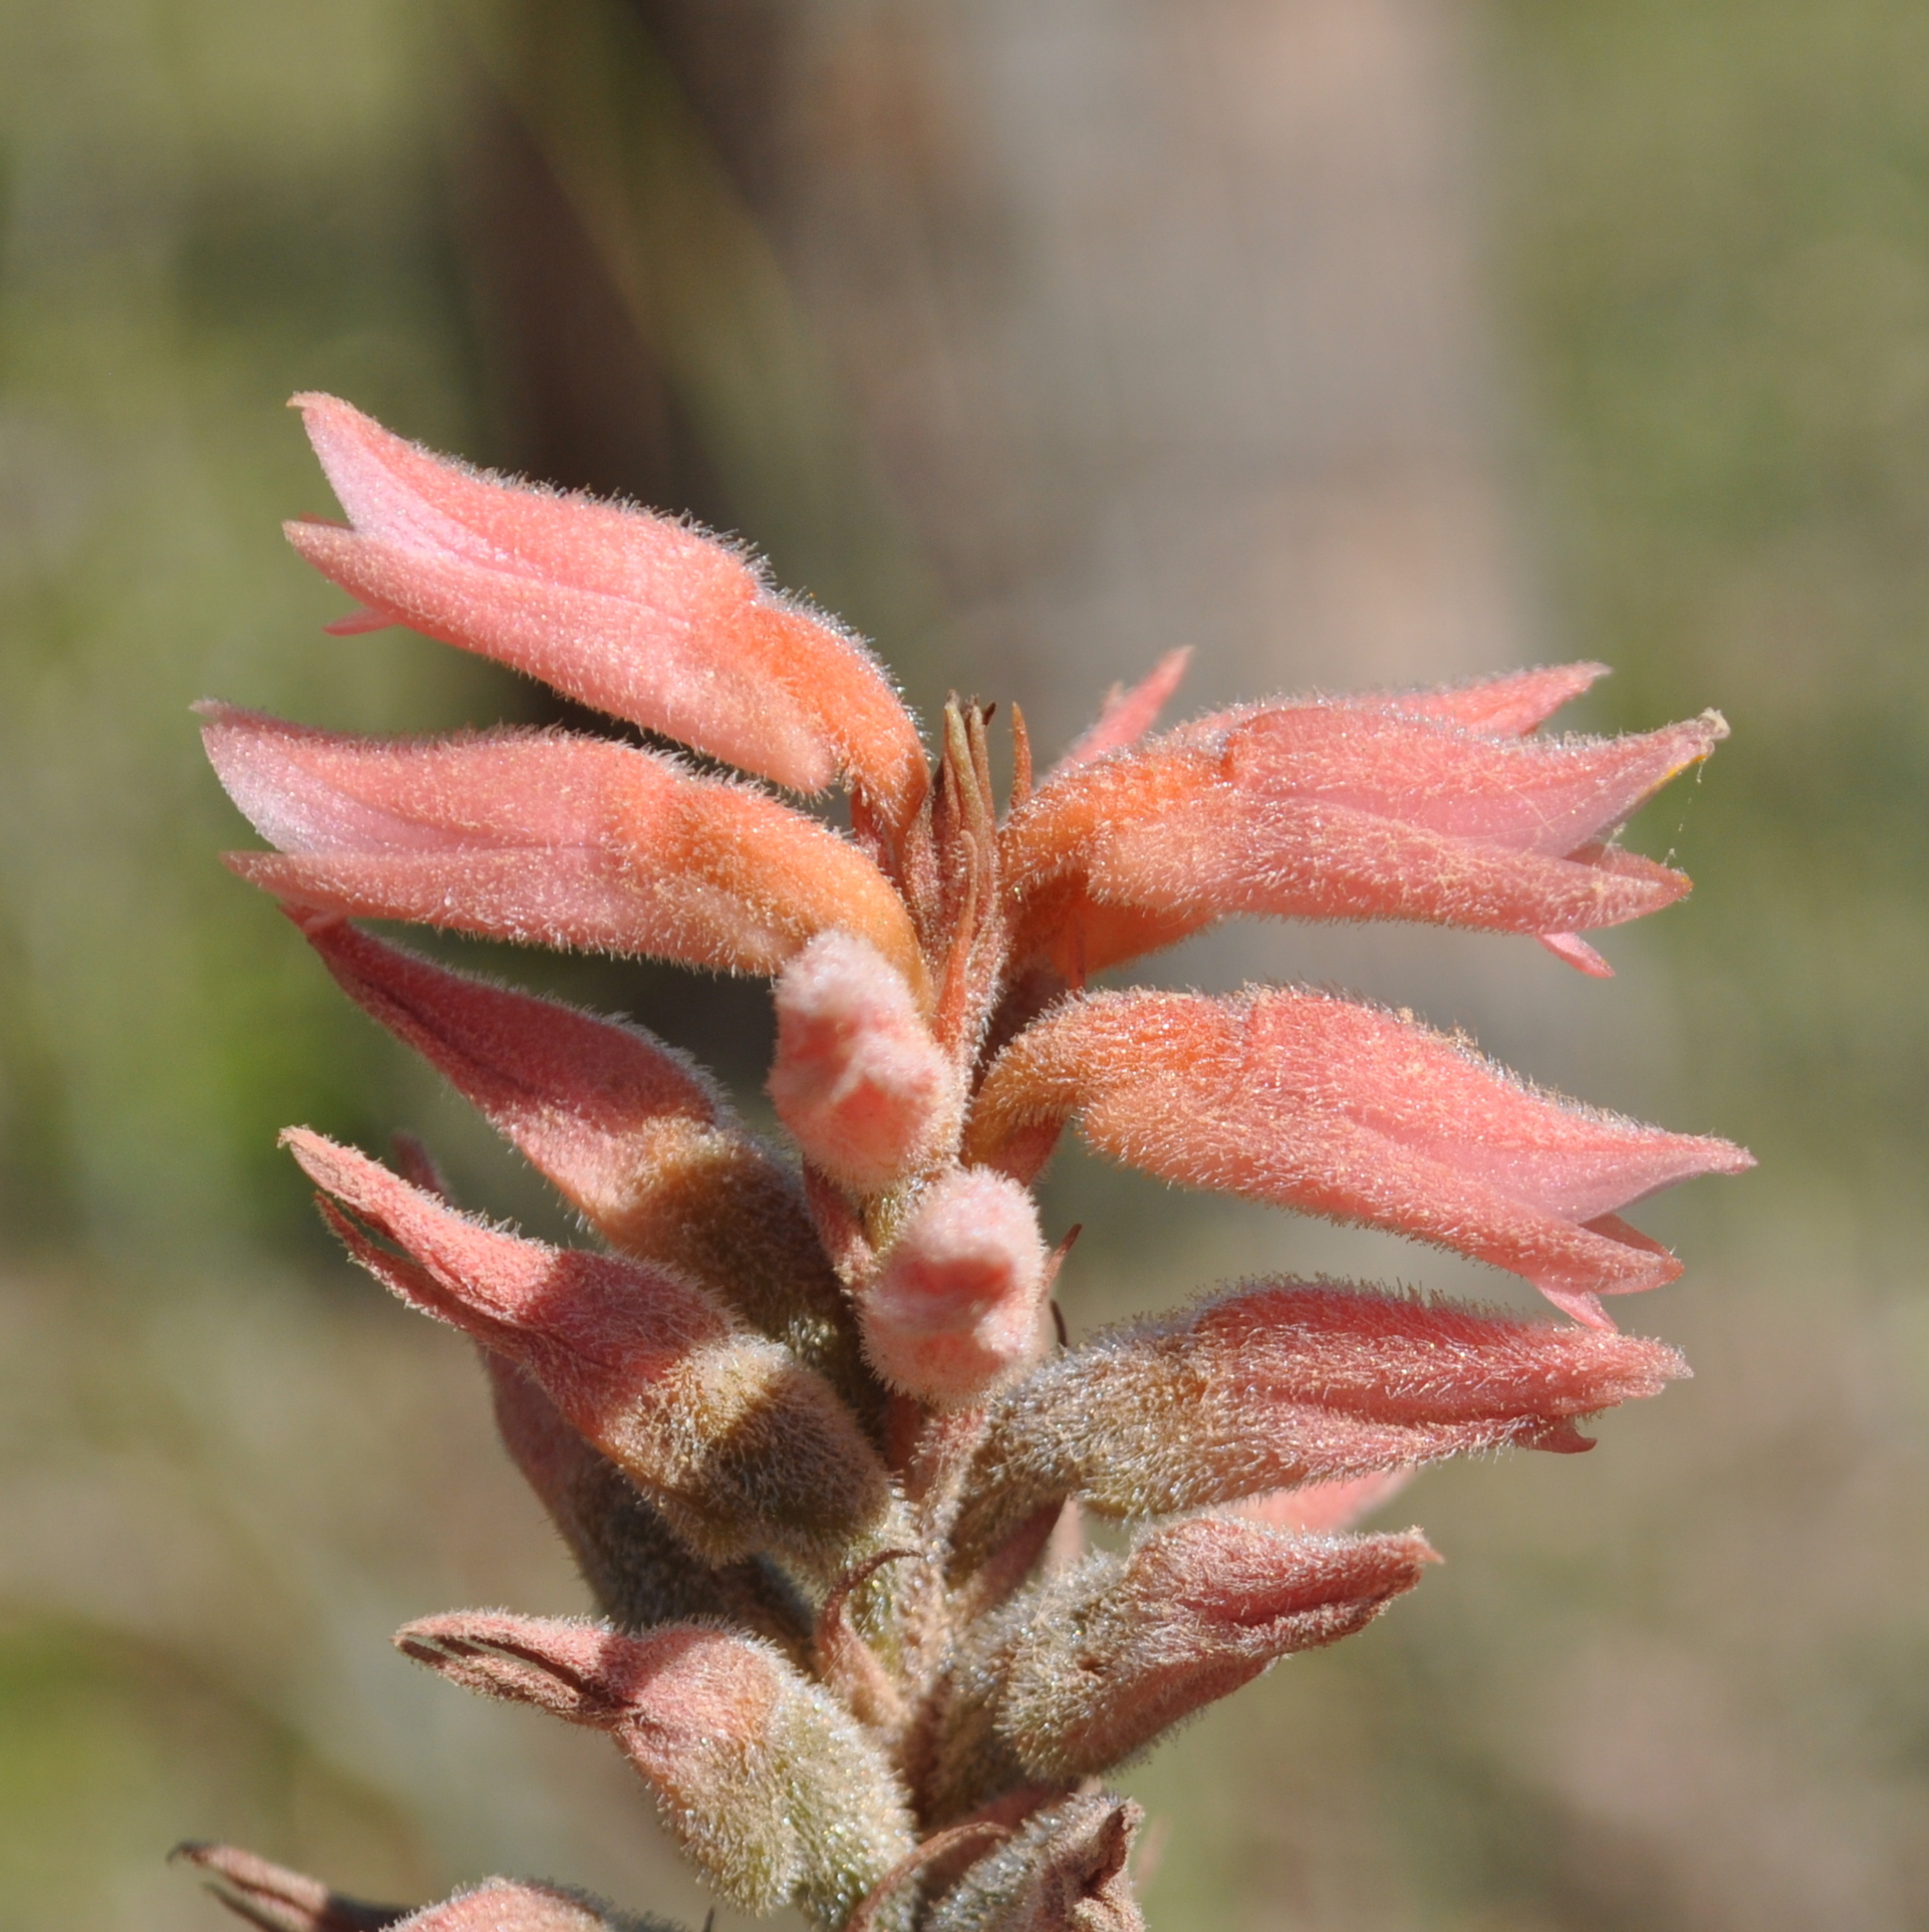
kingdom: Plantae
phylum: Tracheophyta
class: Liliopsida
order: Asparagales
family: Orchidaceae
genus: Sacoila
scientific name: Sacoila lanceolata
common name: Leafless beaked ladiestresses
